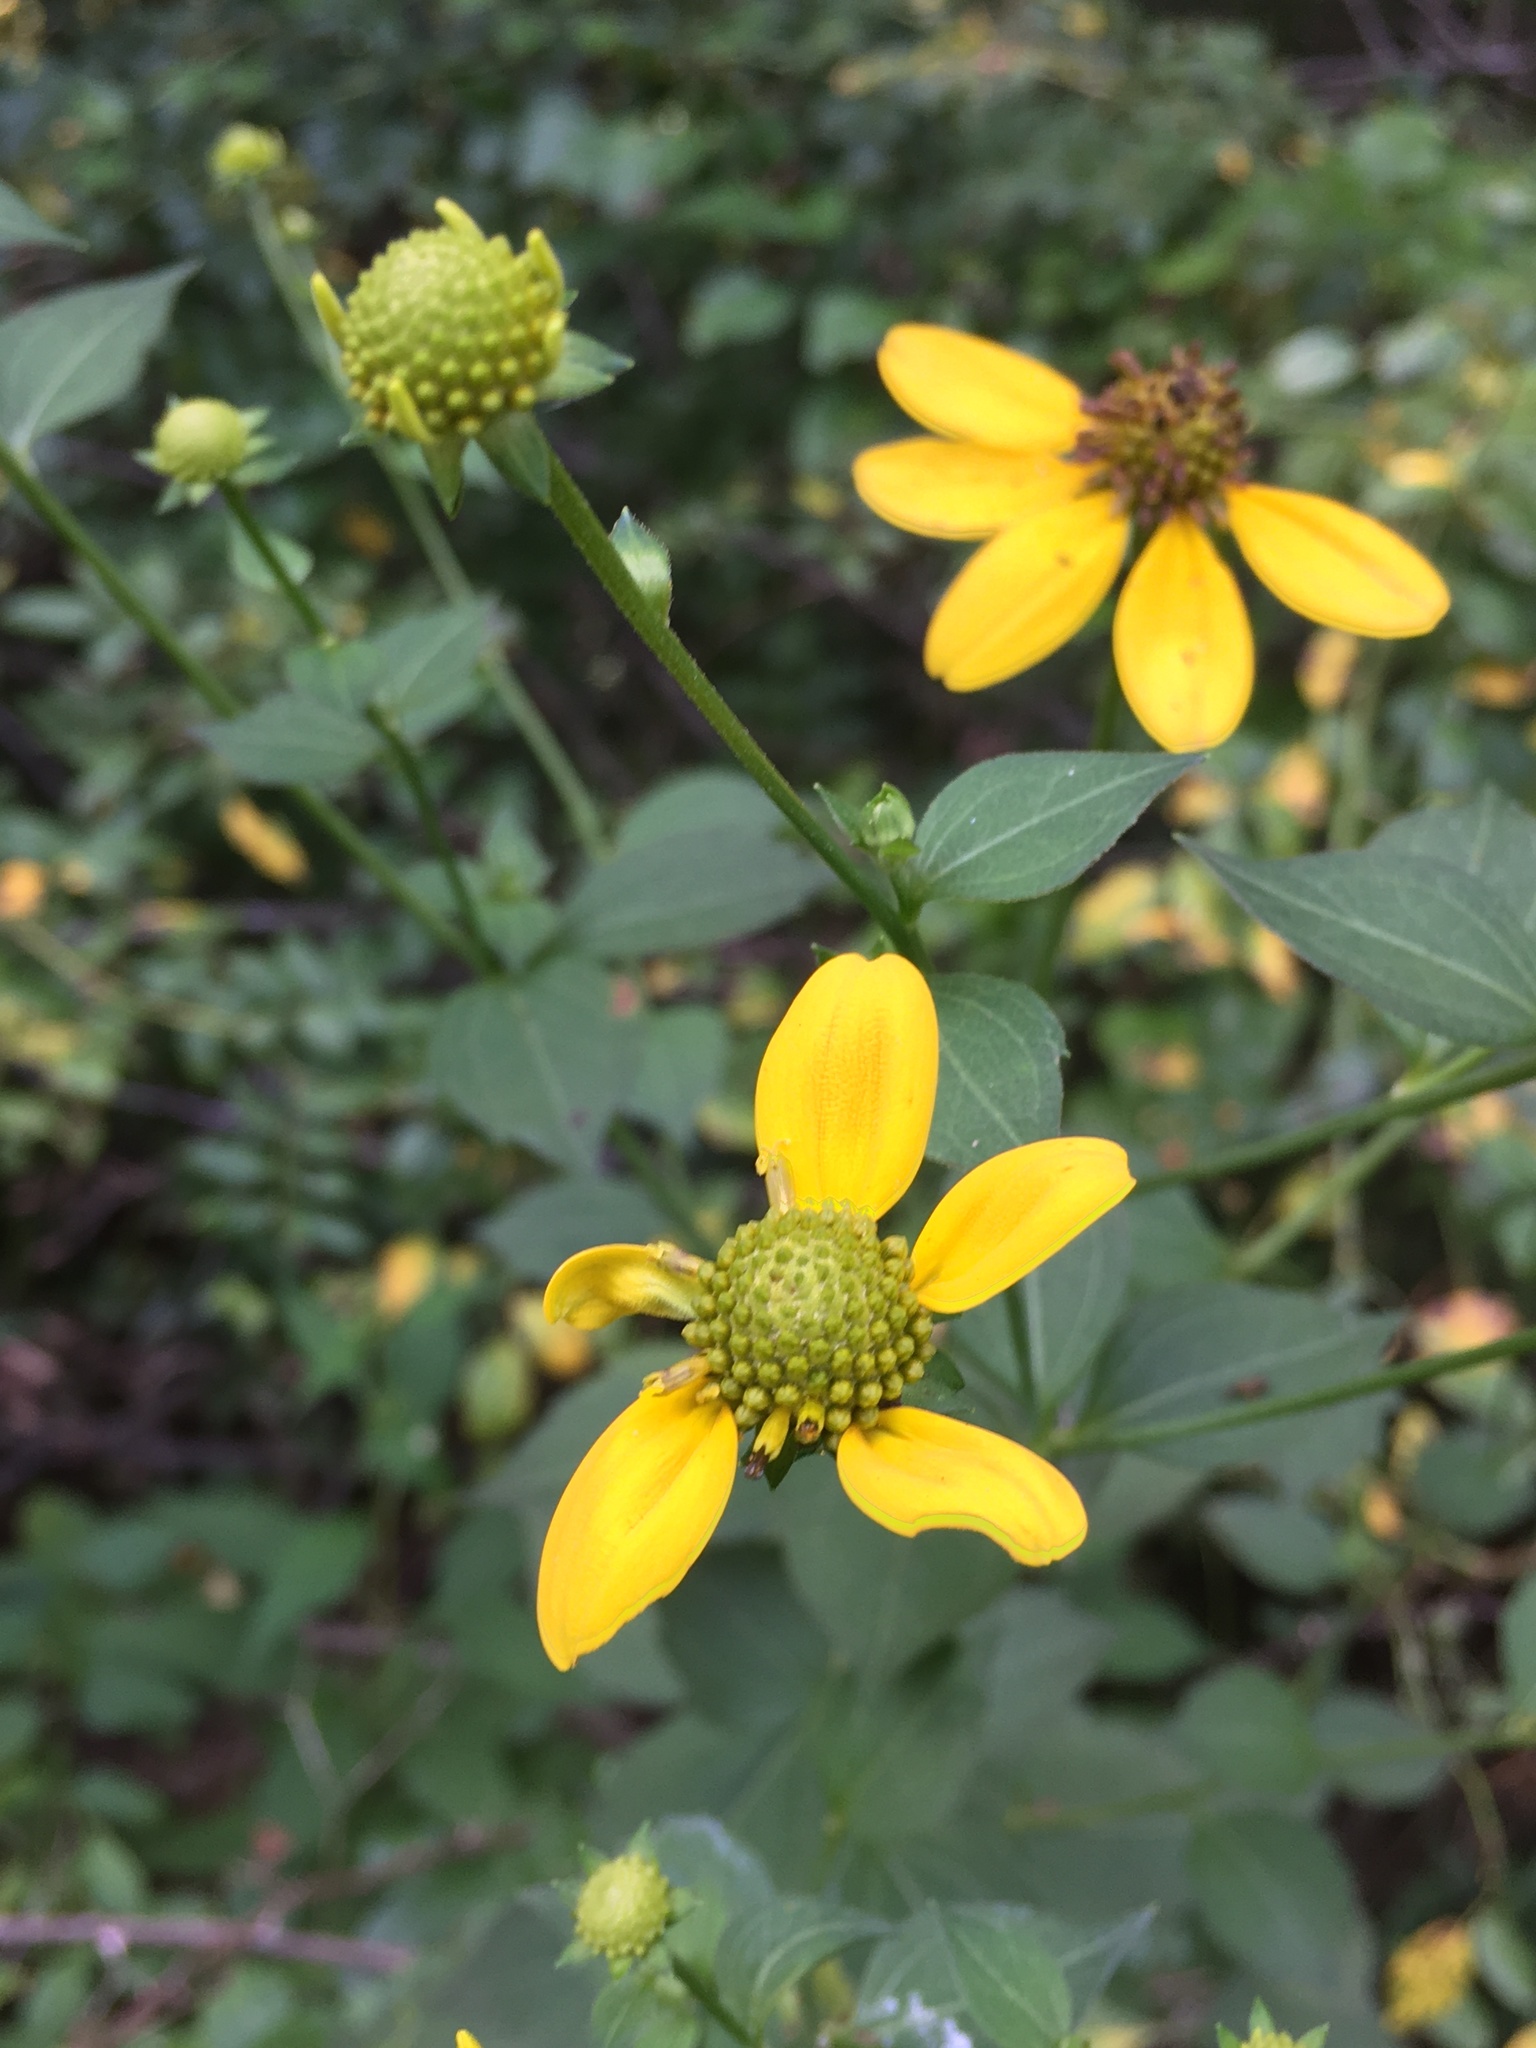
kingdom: Plantae
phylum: Tracheophyta
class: Magnoliopsida
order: Asterales
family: Asteraceae
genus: Rudbeckia
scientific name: Rudbeckia laciniata
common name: Coneflower
